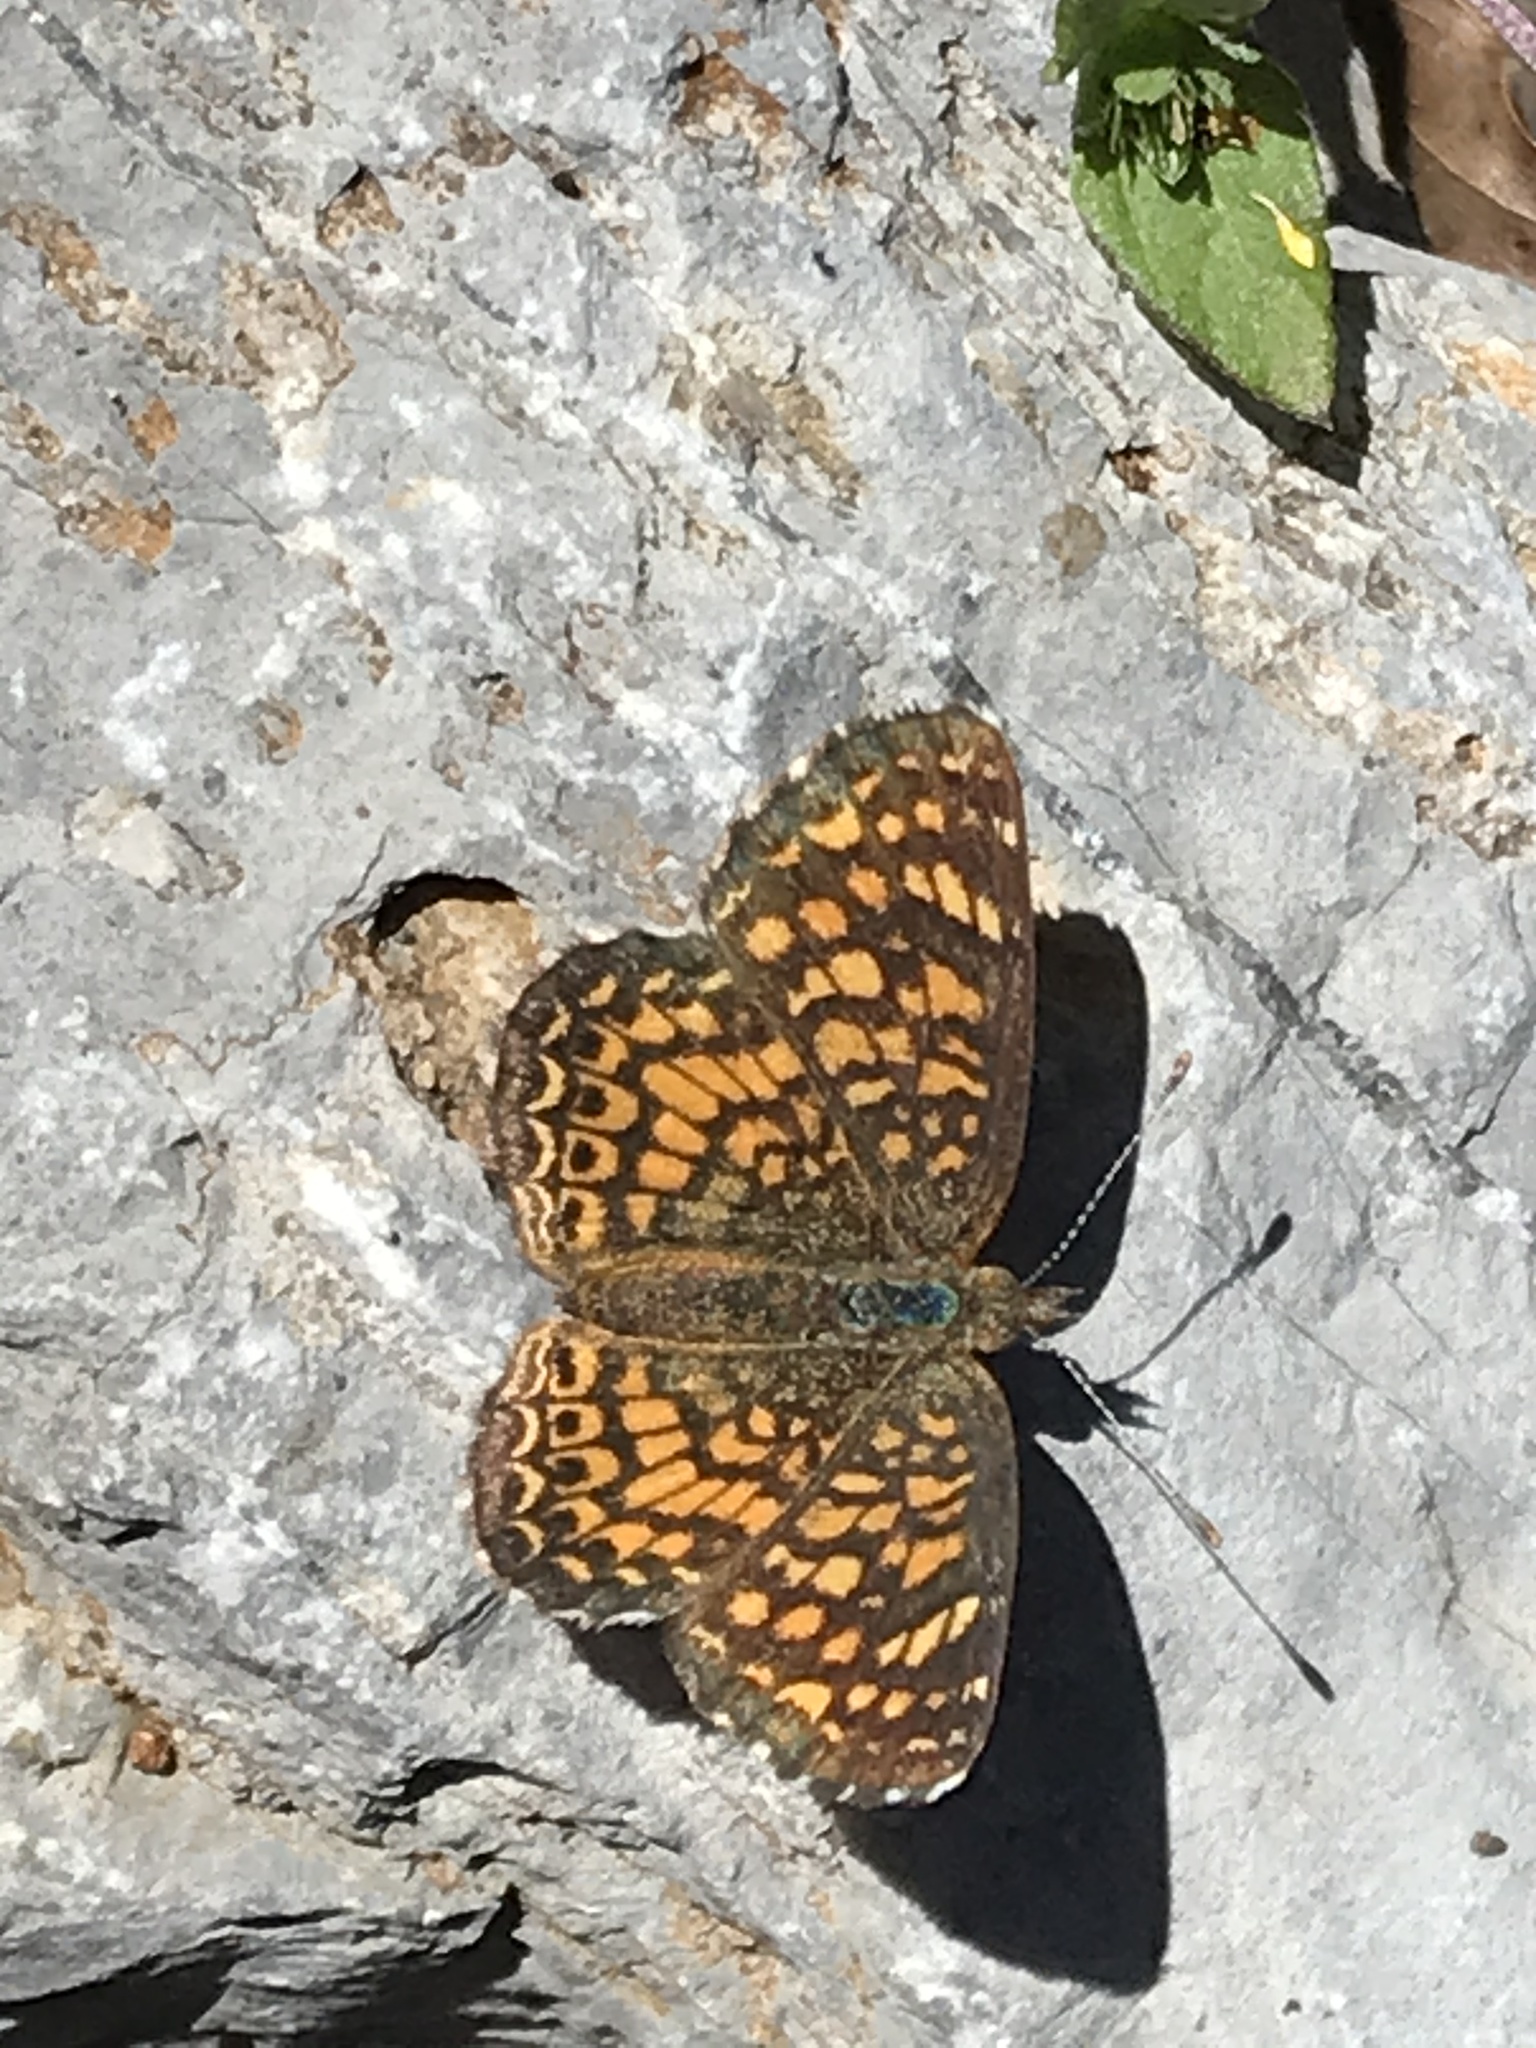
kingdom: Animalia
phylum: Arthropoda
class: Insecta
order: Lepidoptera
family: Nymphalidae
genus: Phyciodes
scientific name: Phyciodes vesta
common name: Vesta crescent
